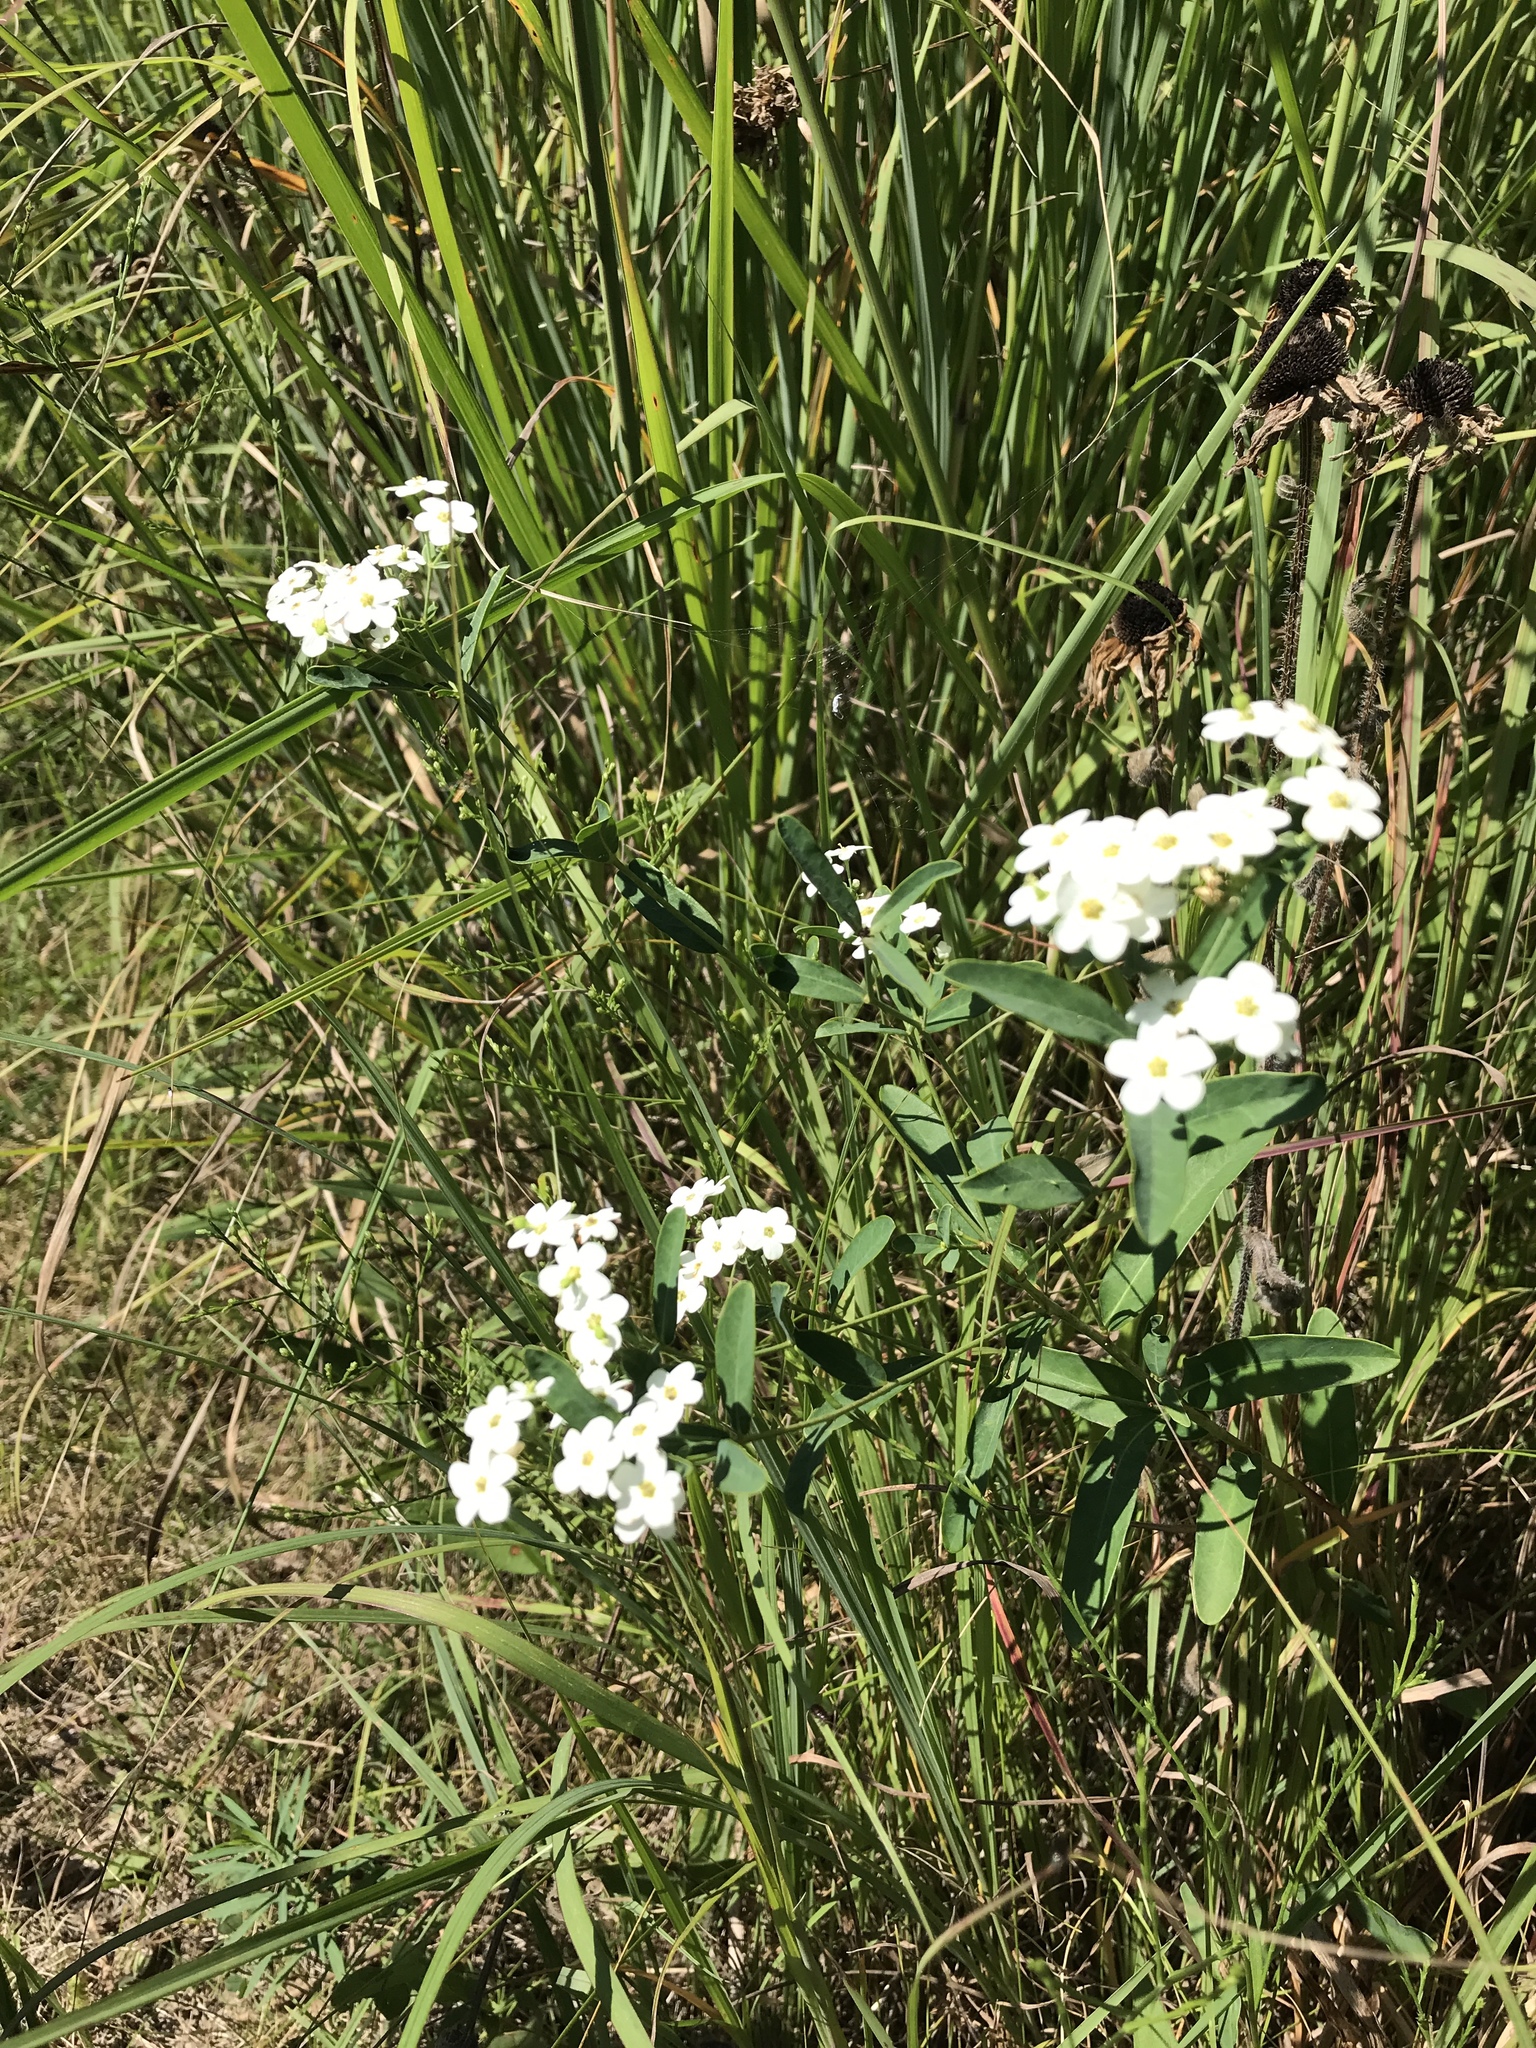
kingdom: Plantae
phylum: Tracheophyta
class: Magnoliopsida
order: Malpighiales
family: Euphorbiaceae
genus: Euphorbia
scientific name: Euphorbia corollata
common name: Flowering spurge
